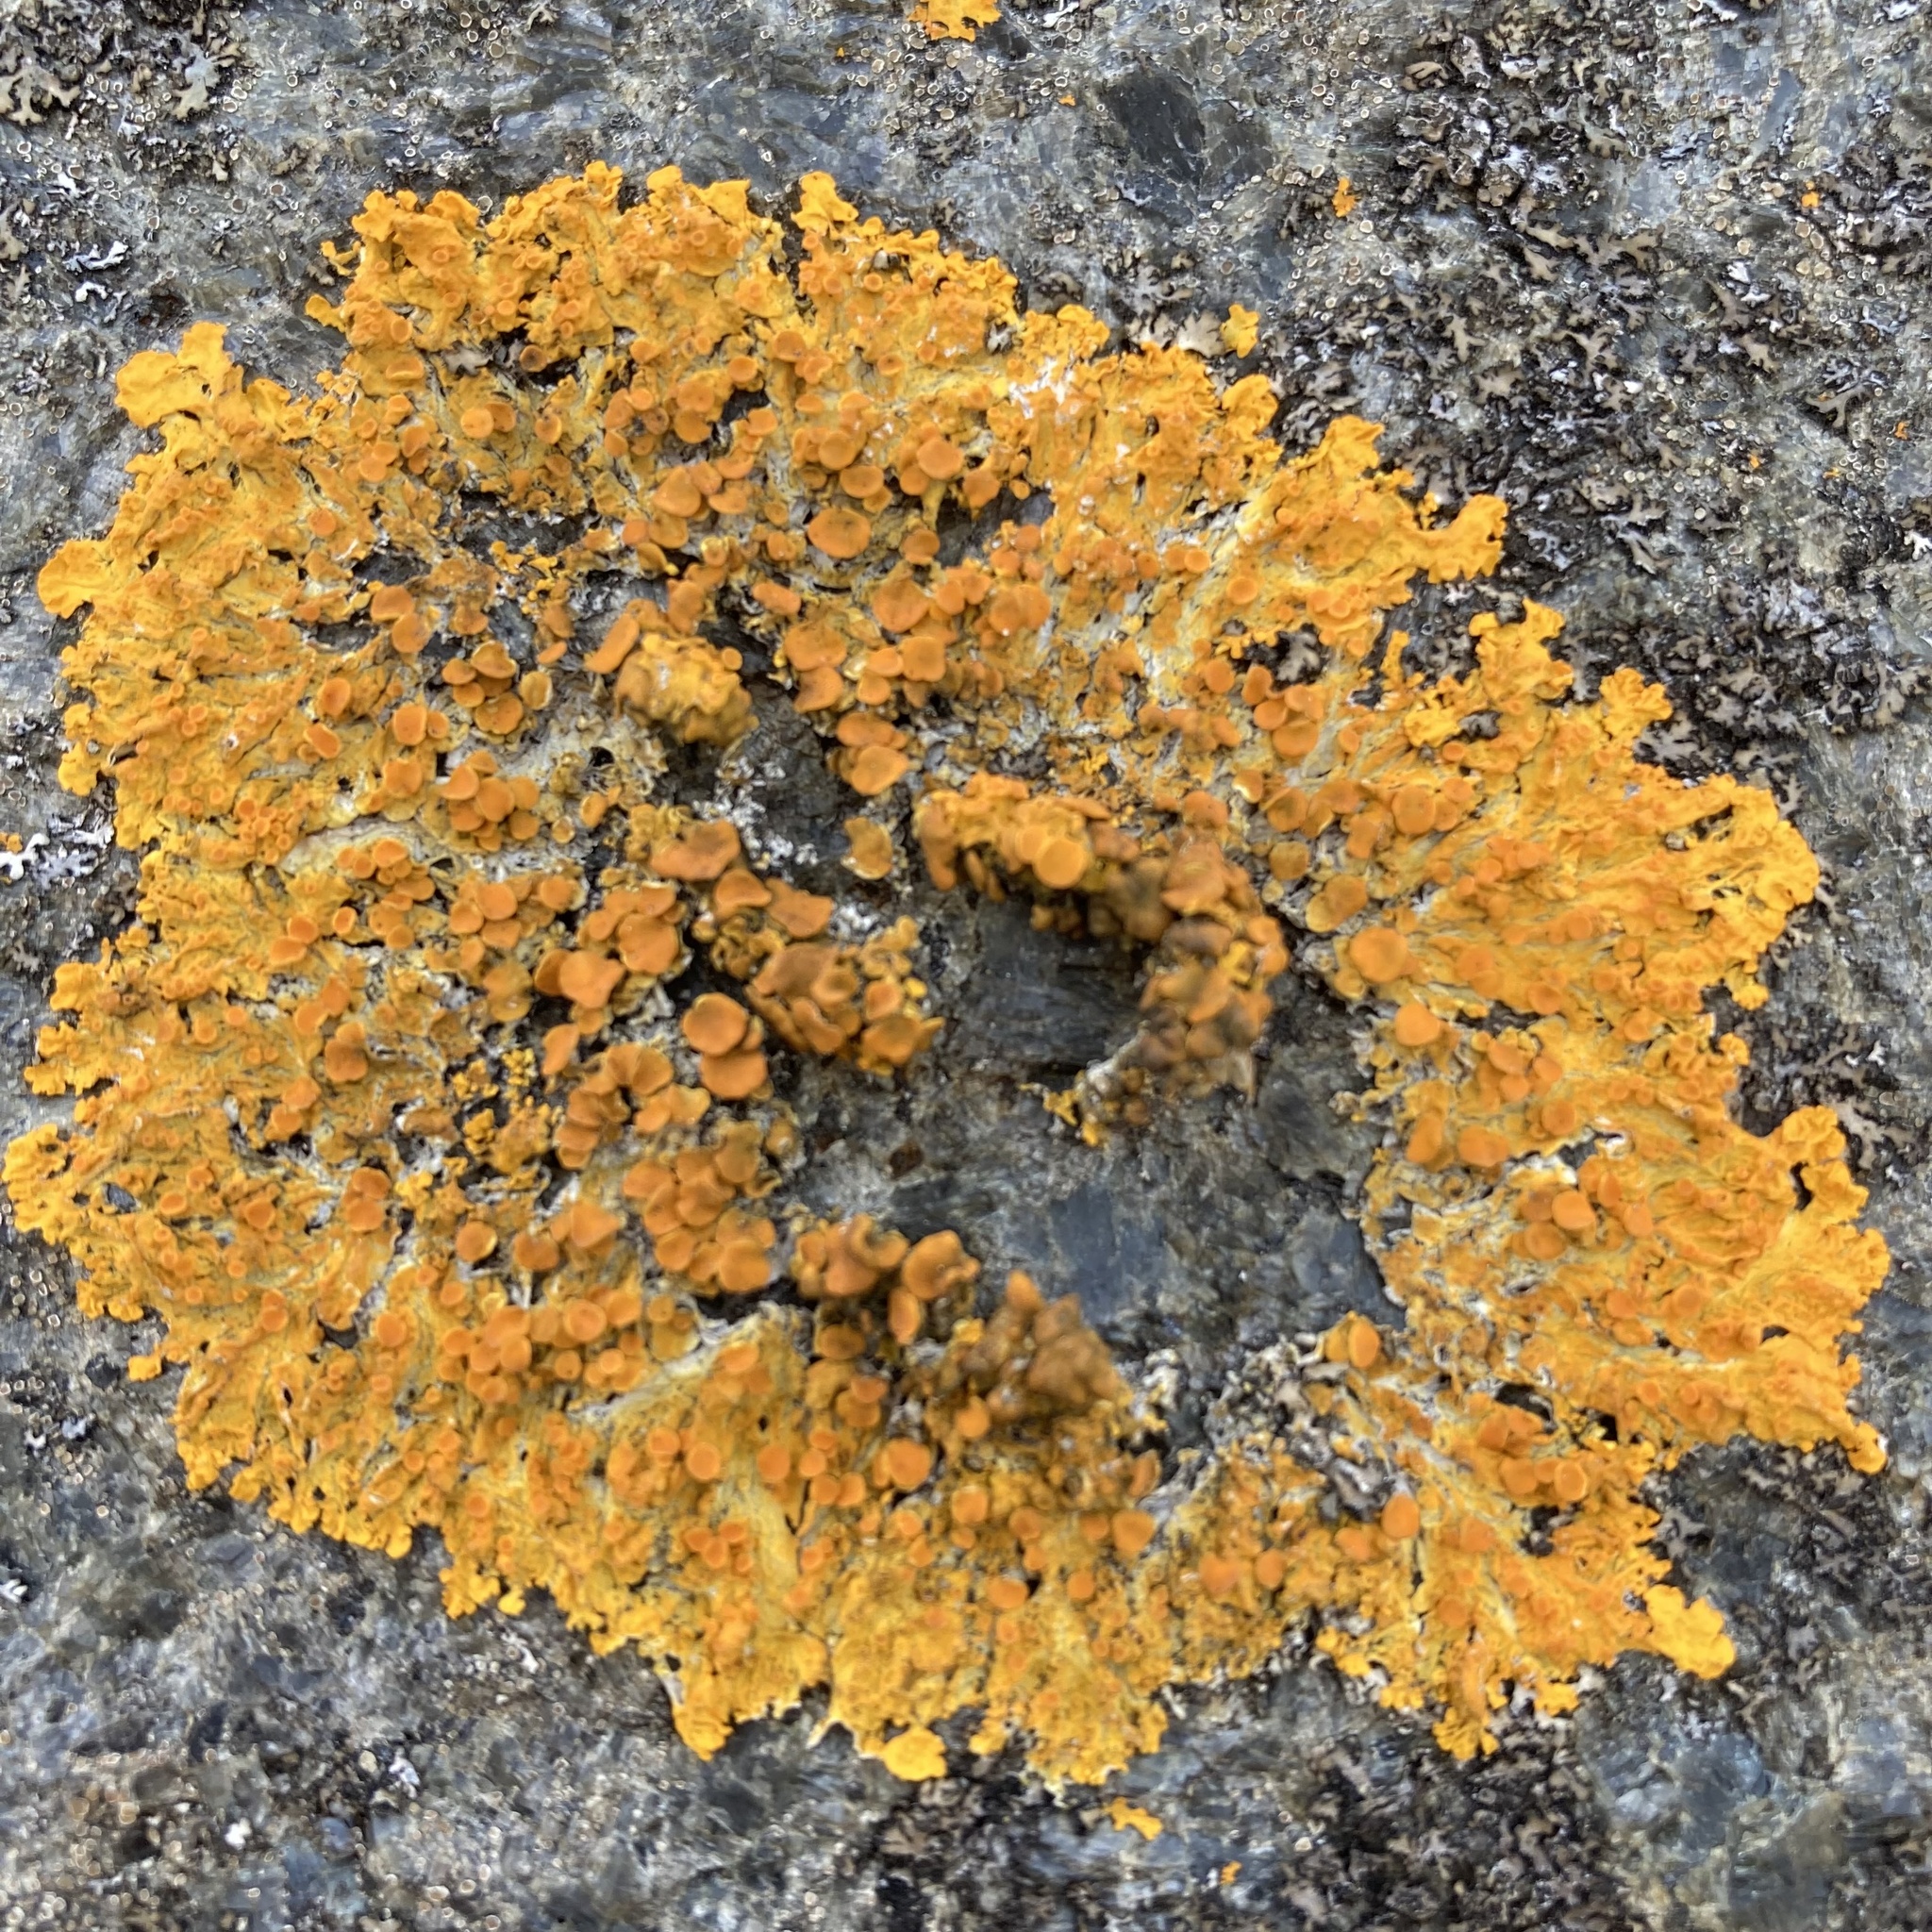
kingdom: Fungi
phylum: Ascomycota
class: Lecanoromycetes
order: Teloschistales
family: Teloschistaceae
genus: Xanthoria
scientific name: Xanthoria parietina
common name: Common orange lichen
